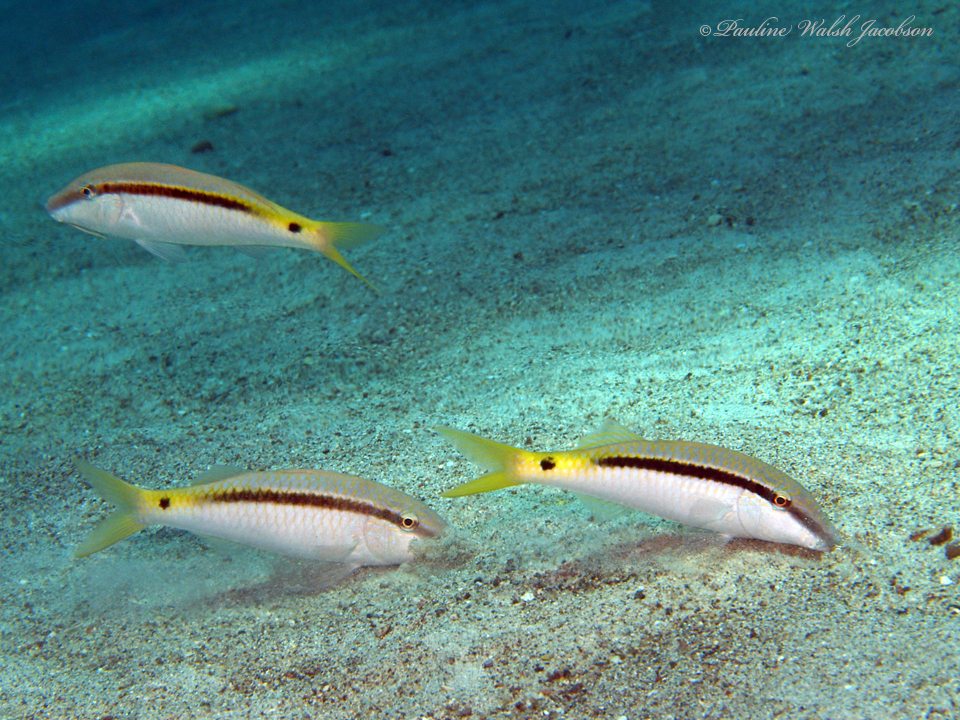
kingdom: Animalia
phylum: Chordata
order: Perciformes
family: Mullidae
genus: Parupeneus
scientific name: Parupeneus forsskali
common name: Red sea goatfish
